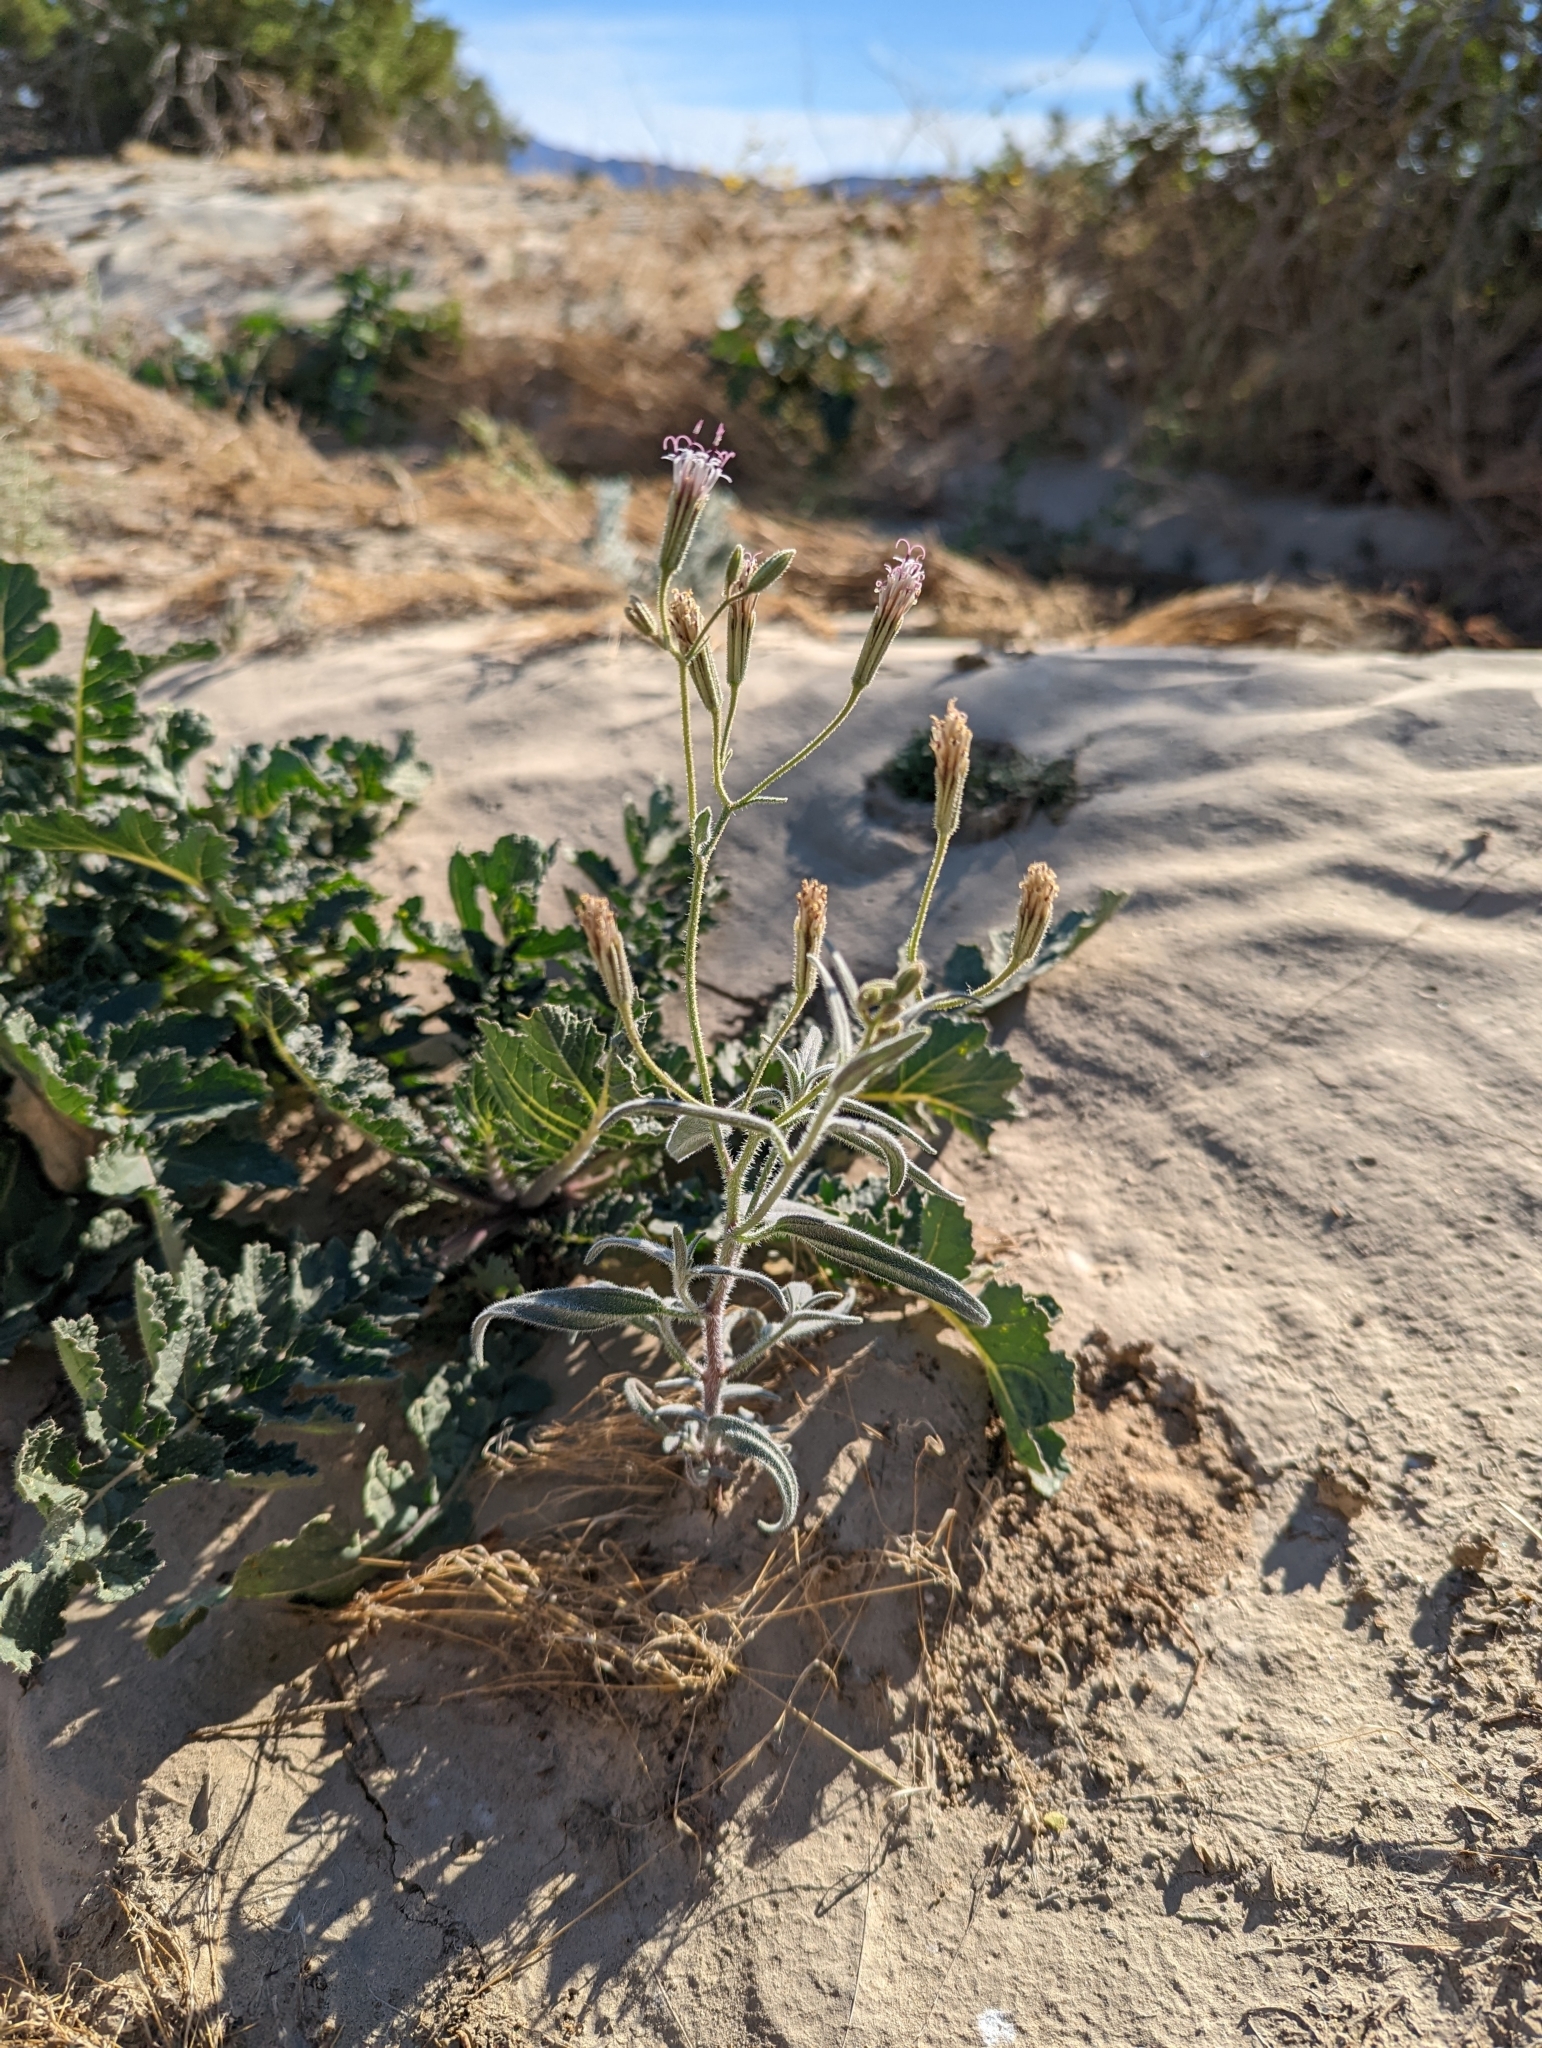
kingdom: Plantae
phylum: Tracheophyta
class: Magnoliopsida
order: Asterales
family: Asteraceae
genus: Palafoxia
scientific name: Palafoxia arida
